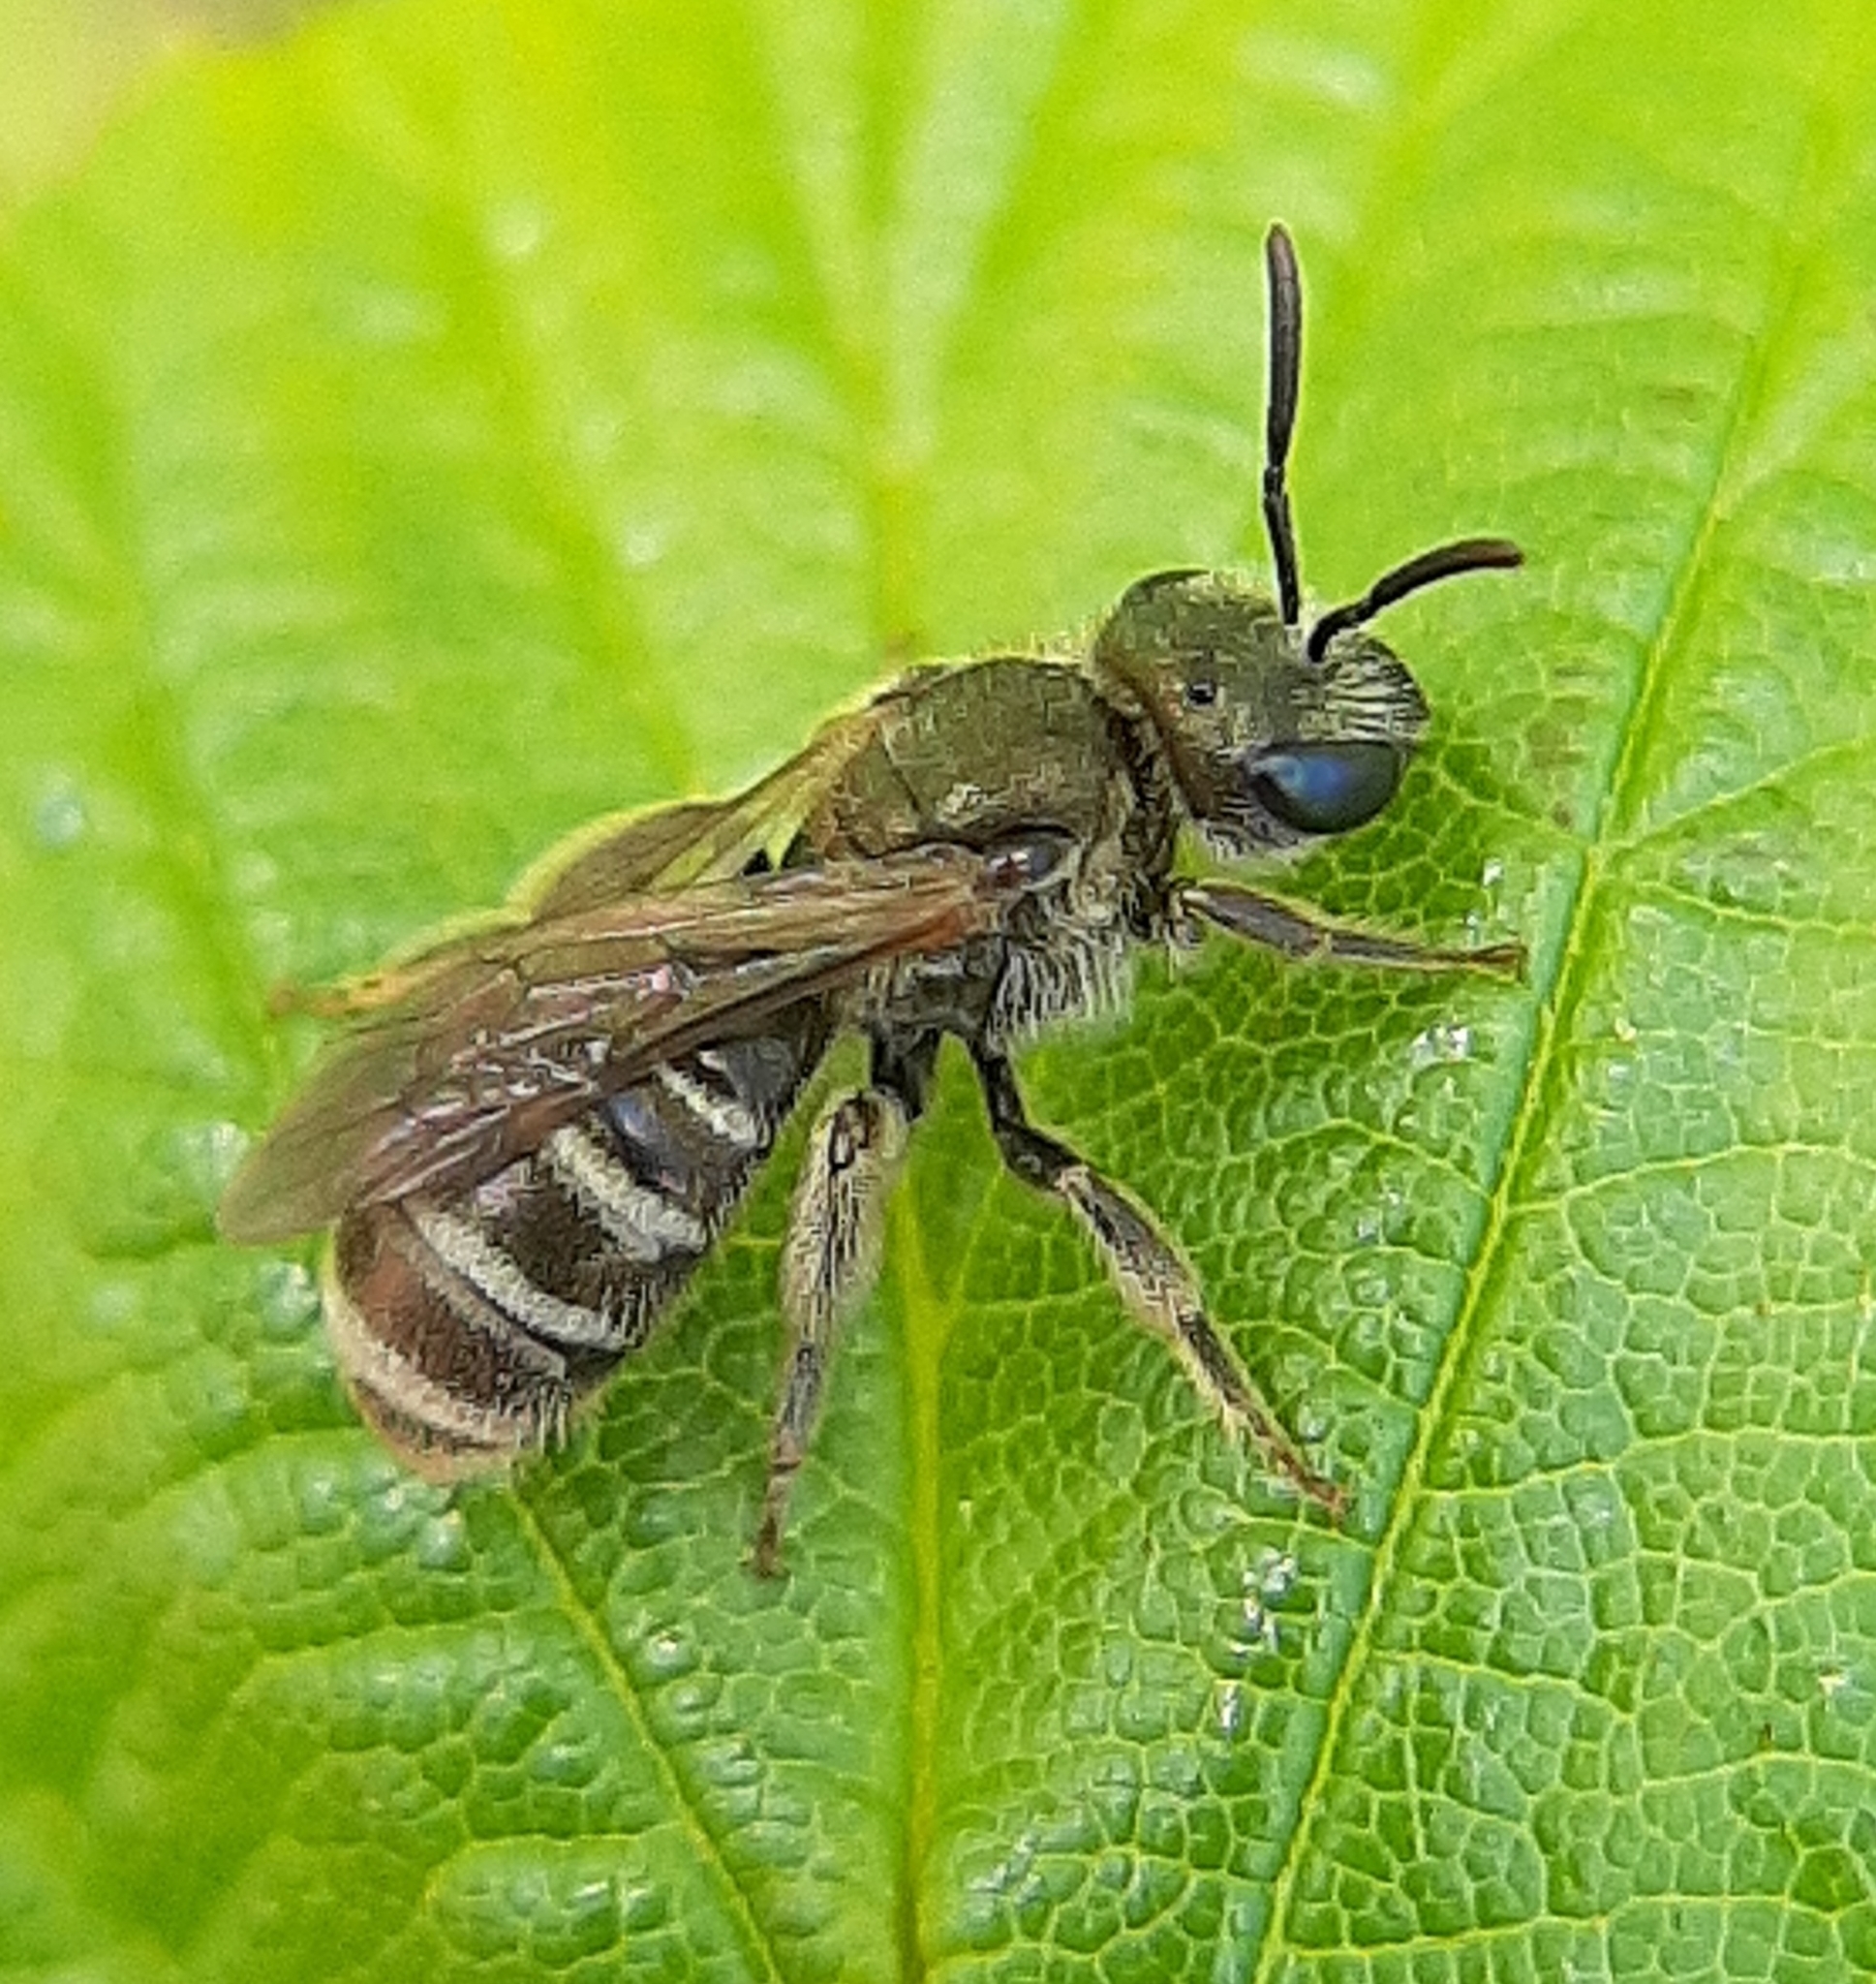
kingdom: Animalia
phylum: Arthropoda
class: Insecta
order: Hymenoptera
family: Halictidae
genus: Halictus
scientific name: Halictus confusus
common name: Southern bronze furrow bee
